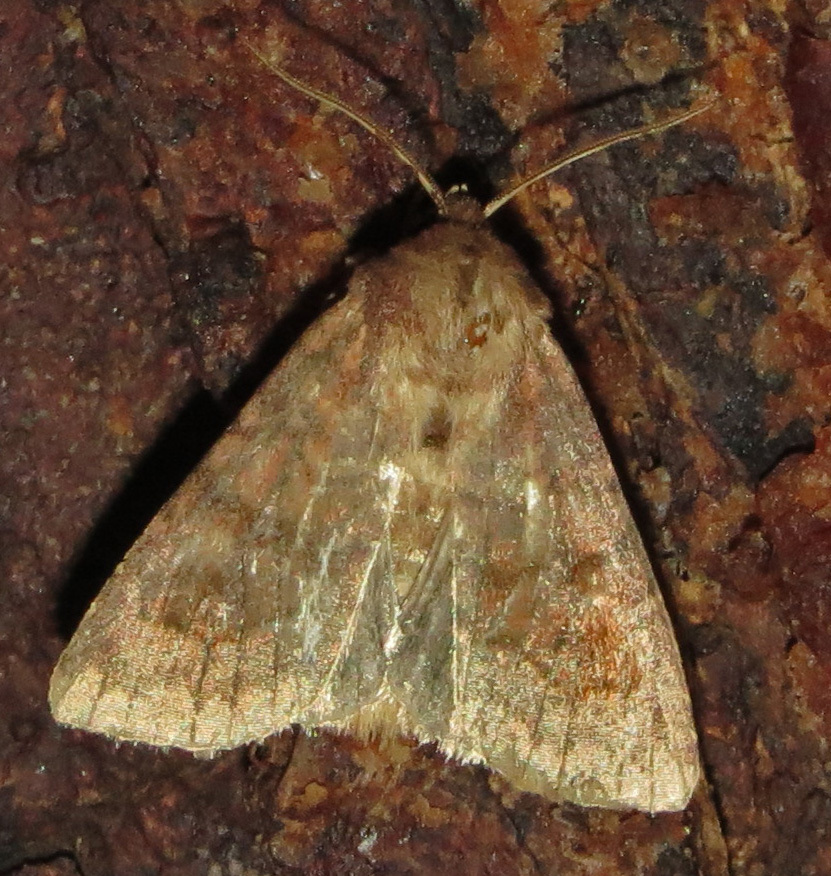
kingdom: Animalia
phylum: Arthropoda
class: Insecta
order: Lepidoptera
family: Noctuidae
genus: Nephelodes
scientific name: Nephelodes minians
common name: Bronzed cutworm
